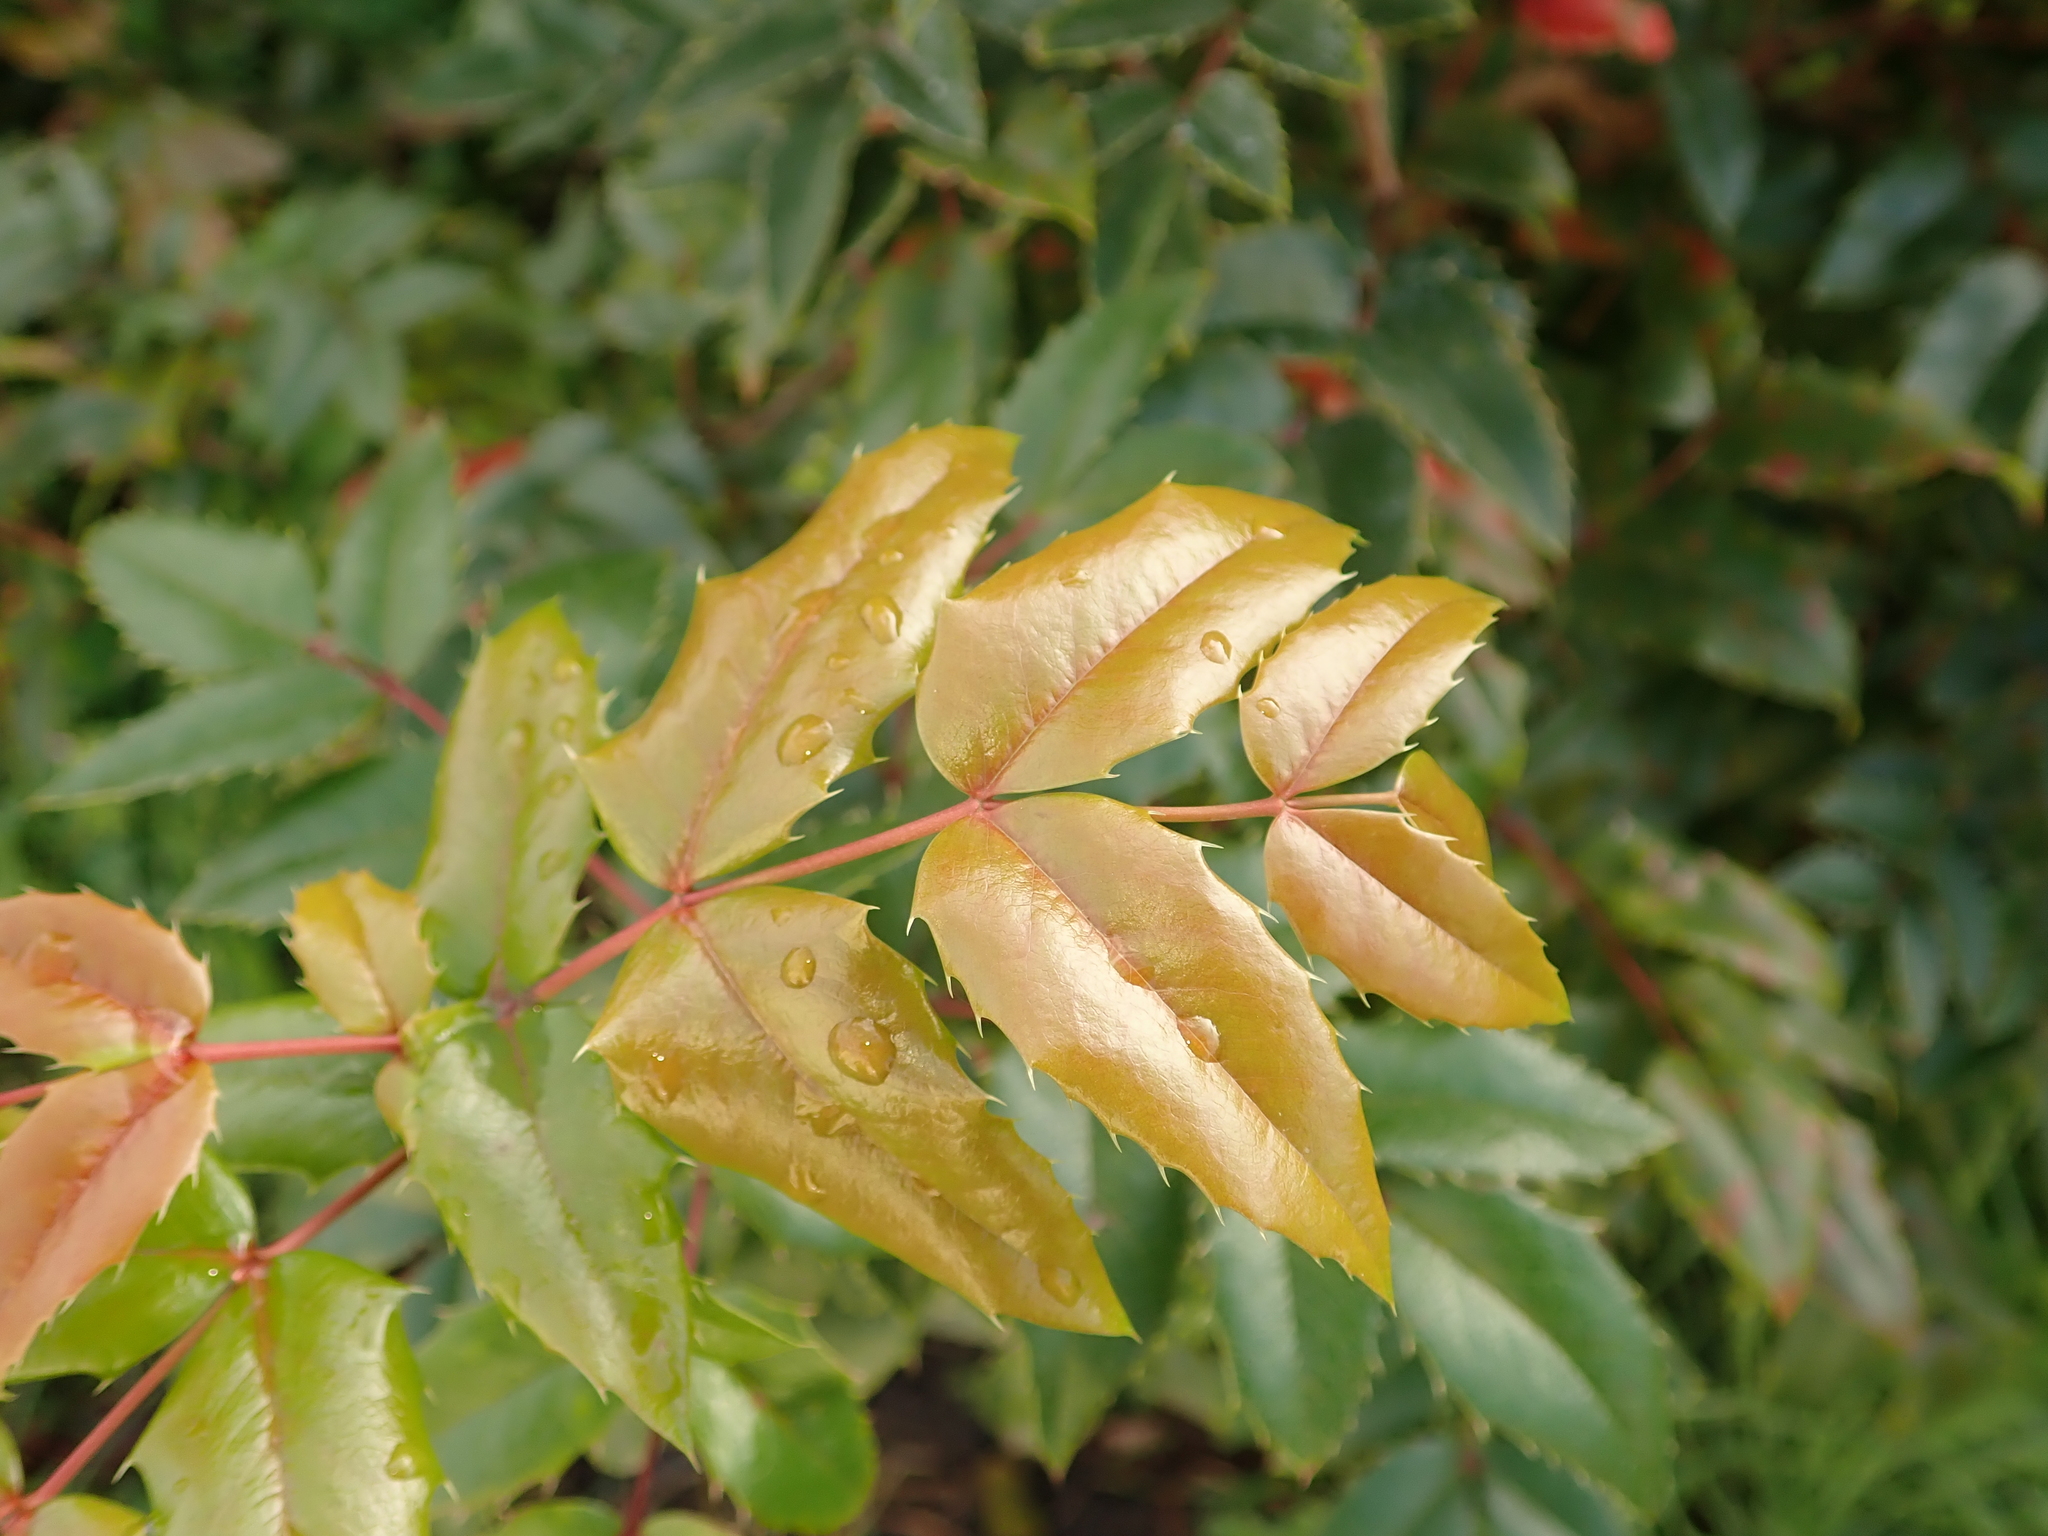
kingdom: Plantae
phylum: Tracheophyta
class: Magnoliopsida
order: Ranunculales
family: Berberidaceae
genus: Mahonia
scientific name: Mahonia aquifolium
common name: Oregon-grape
